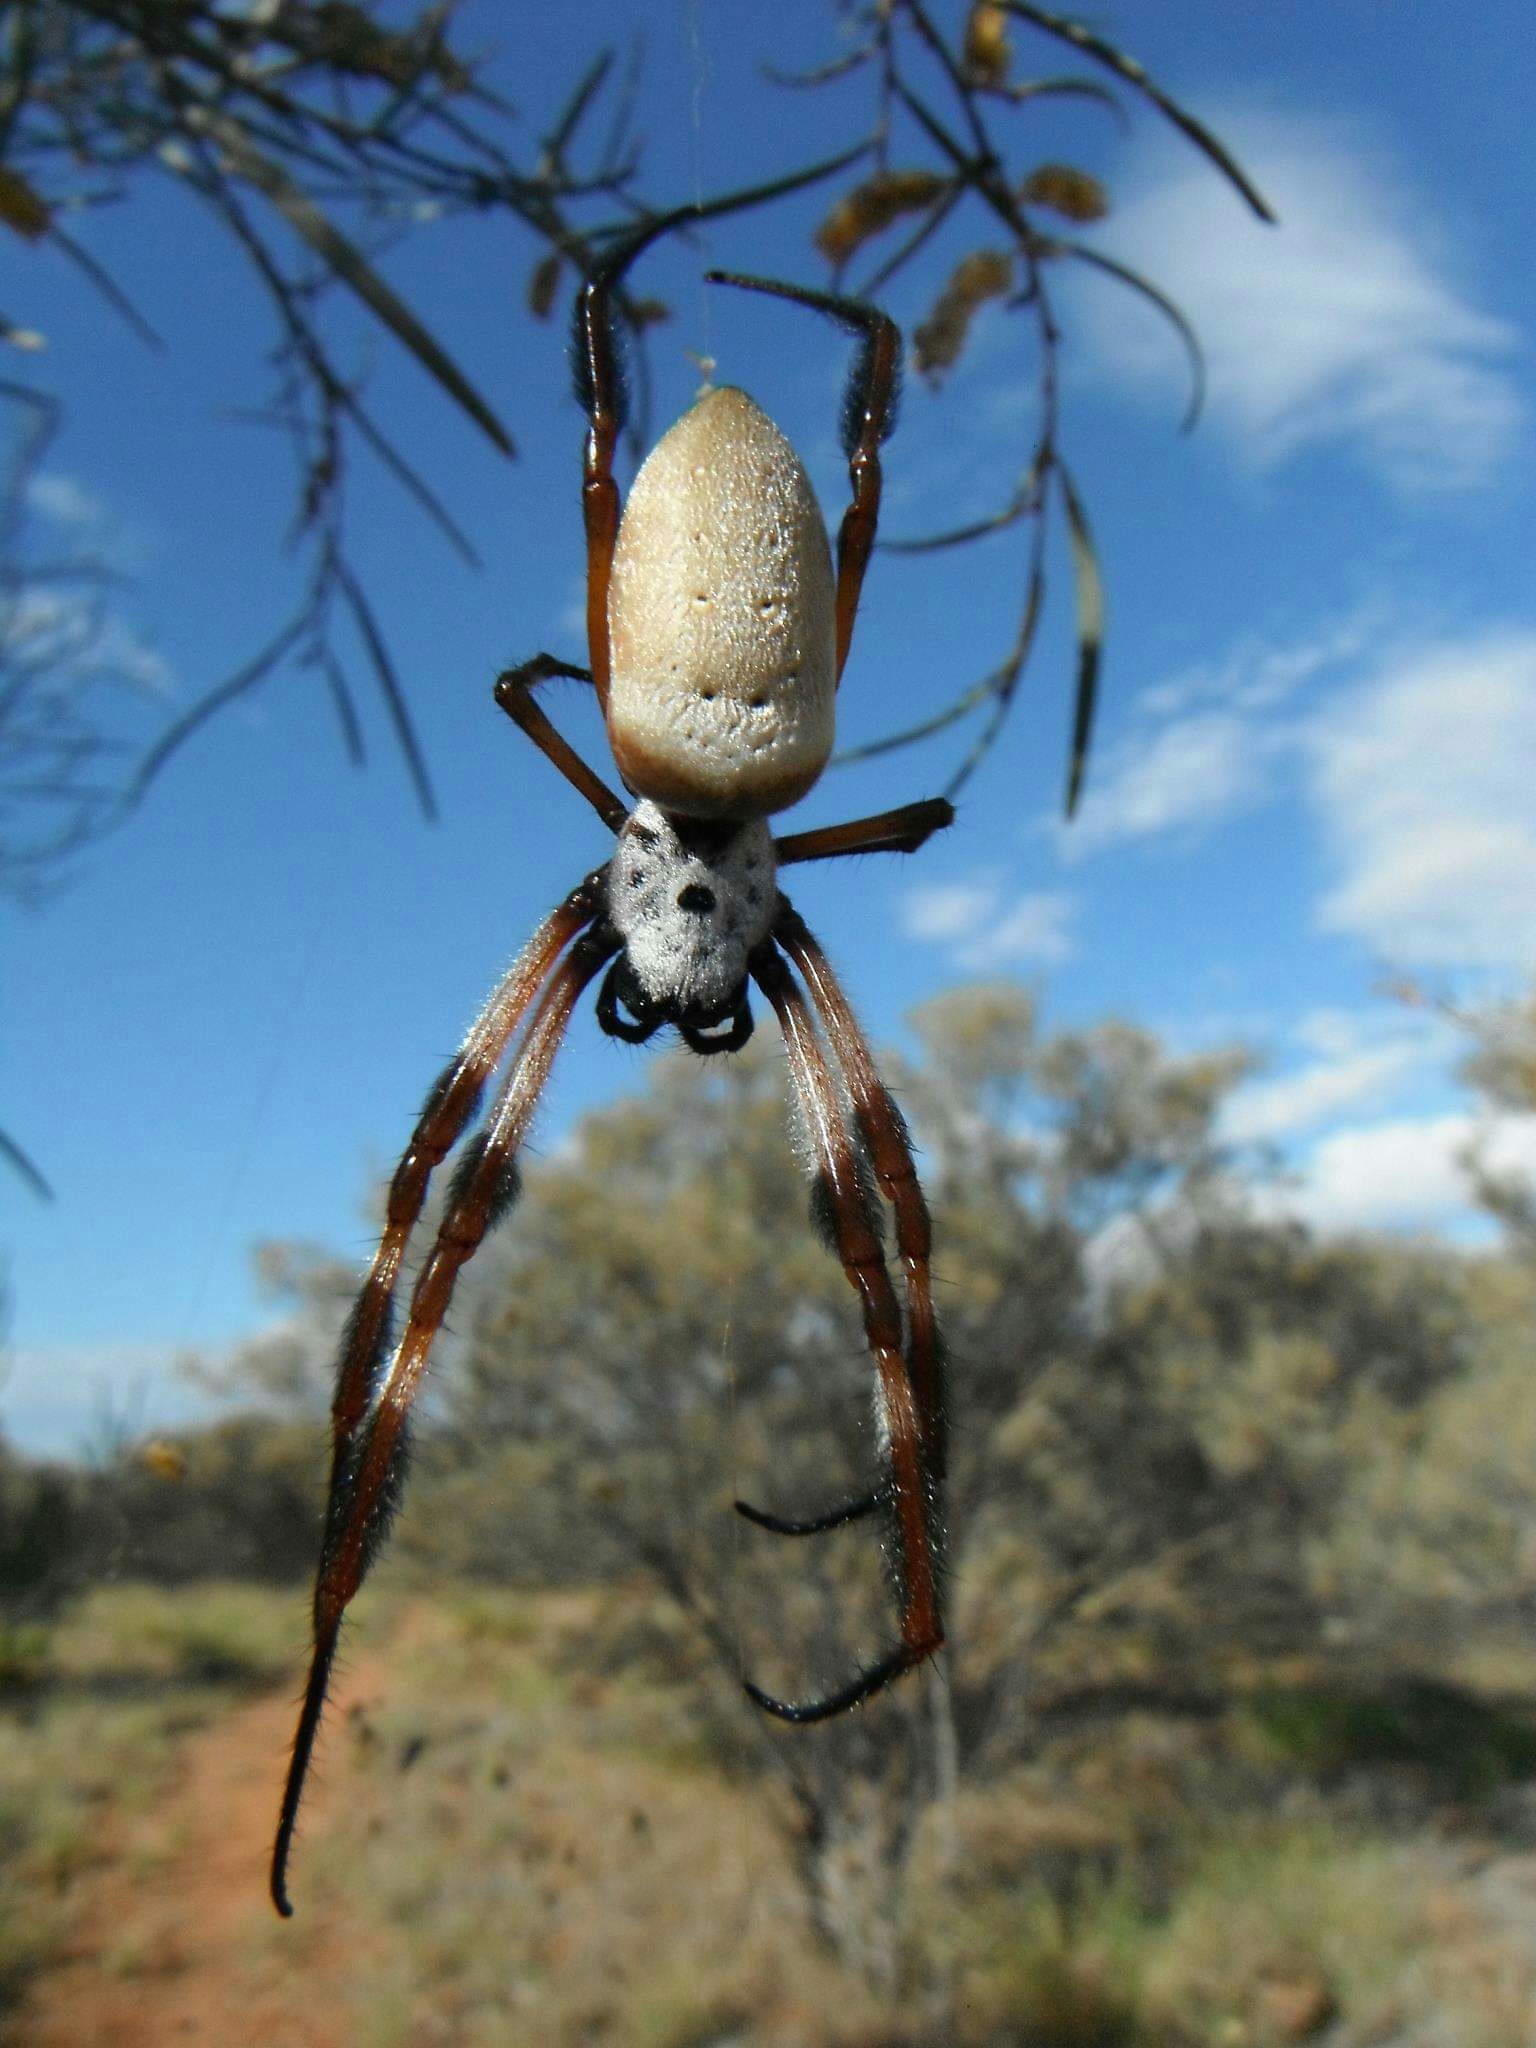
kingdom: Animalia
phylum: Arthropoda
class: Arachnida
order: Araneae
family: Araneidae
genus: Trichonephila
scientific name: Trichonephila edulis
